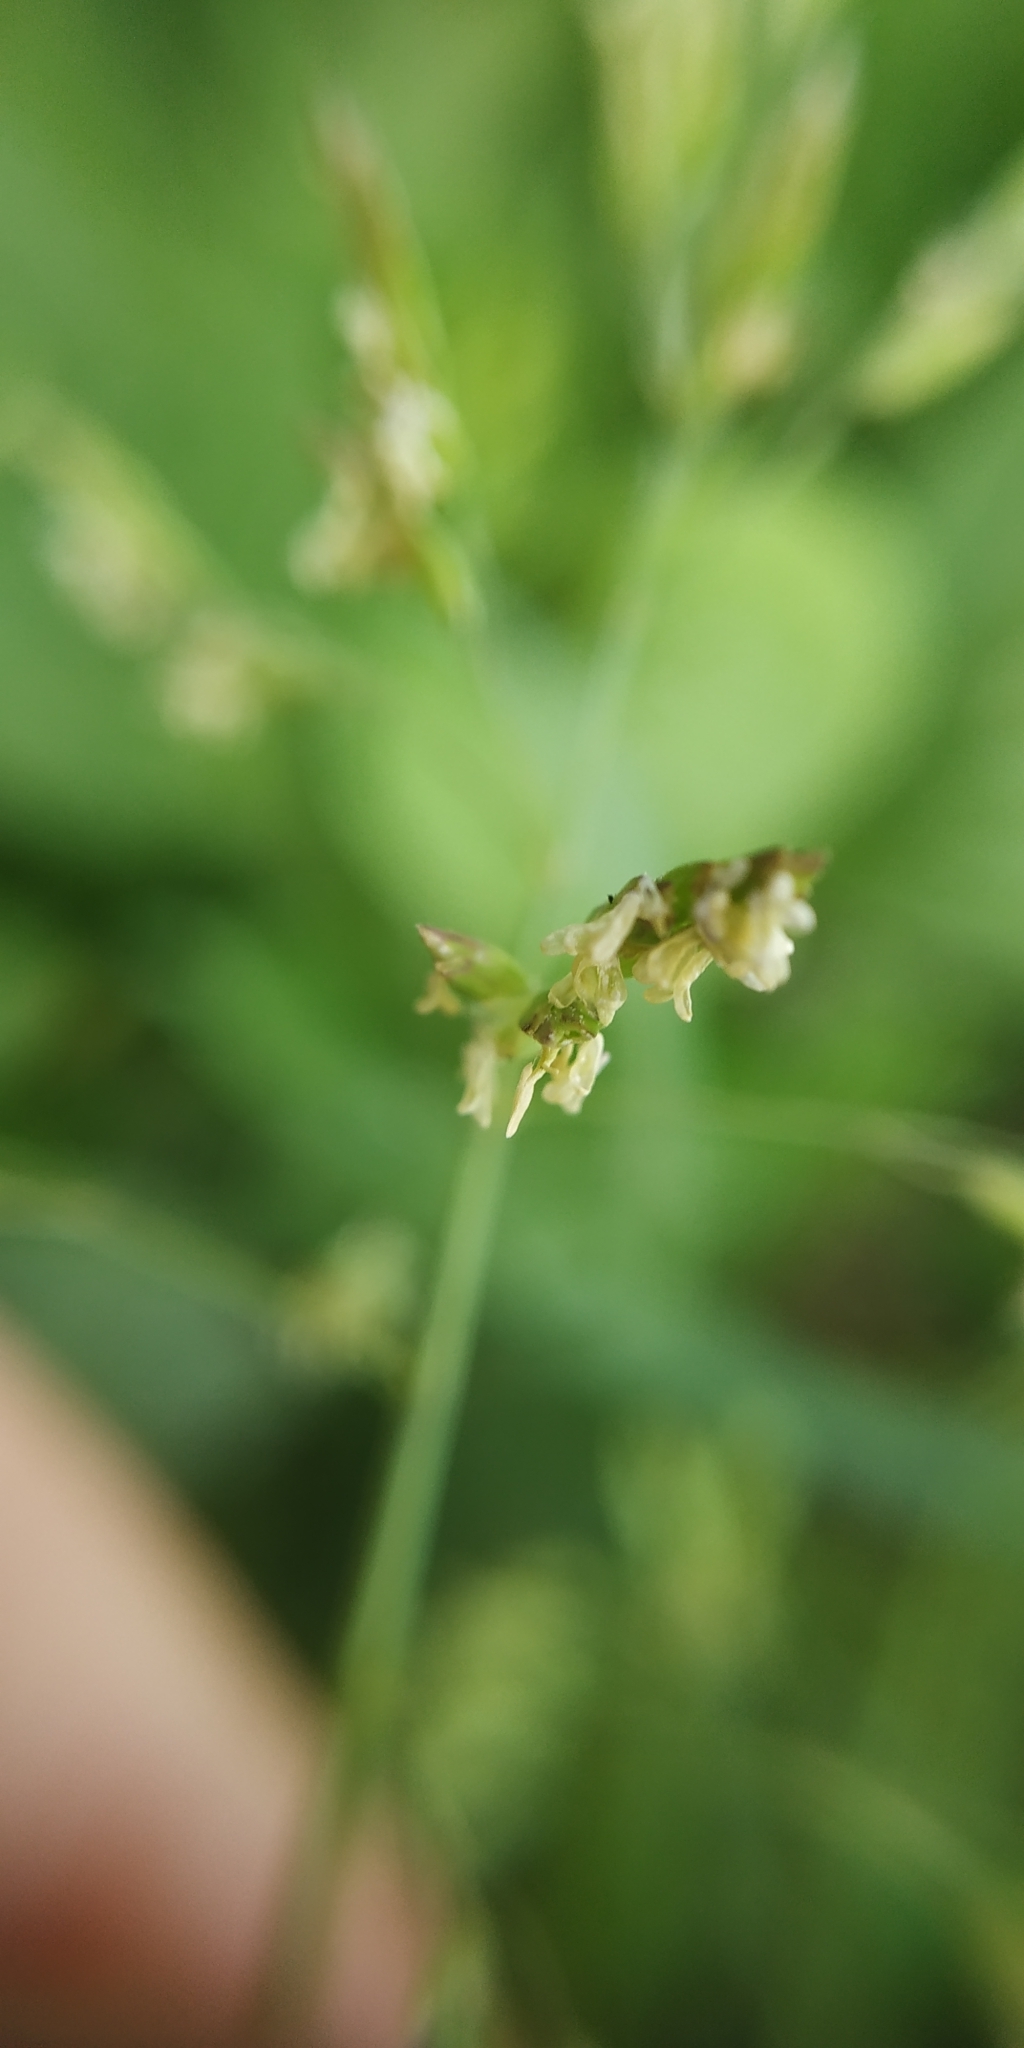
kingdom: Plantae
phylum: Tracheophyta
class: Liliopsida
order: Poales
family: Poaceae
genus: Poa
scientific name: Poa annua
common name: Annual bluegrass
